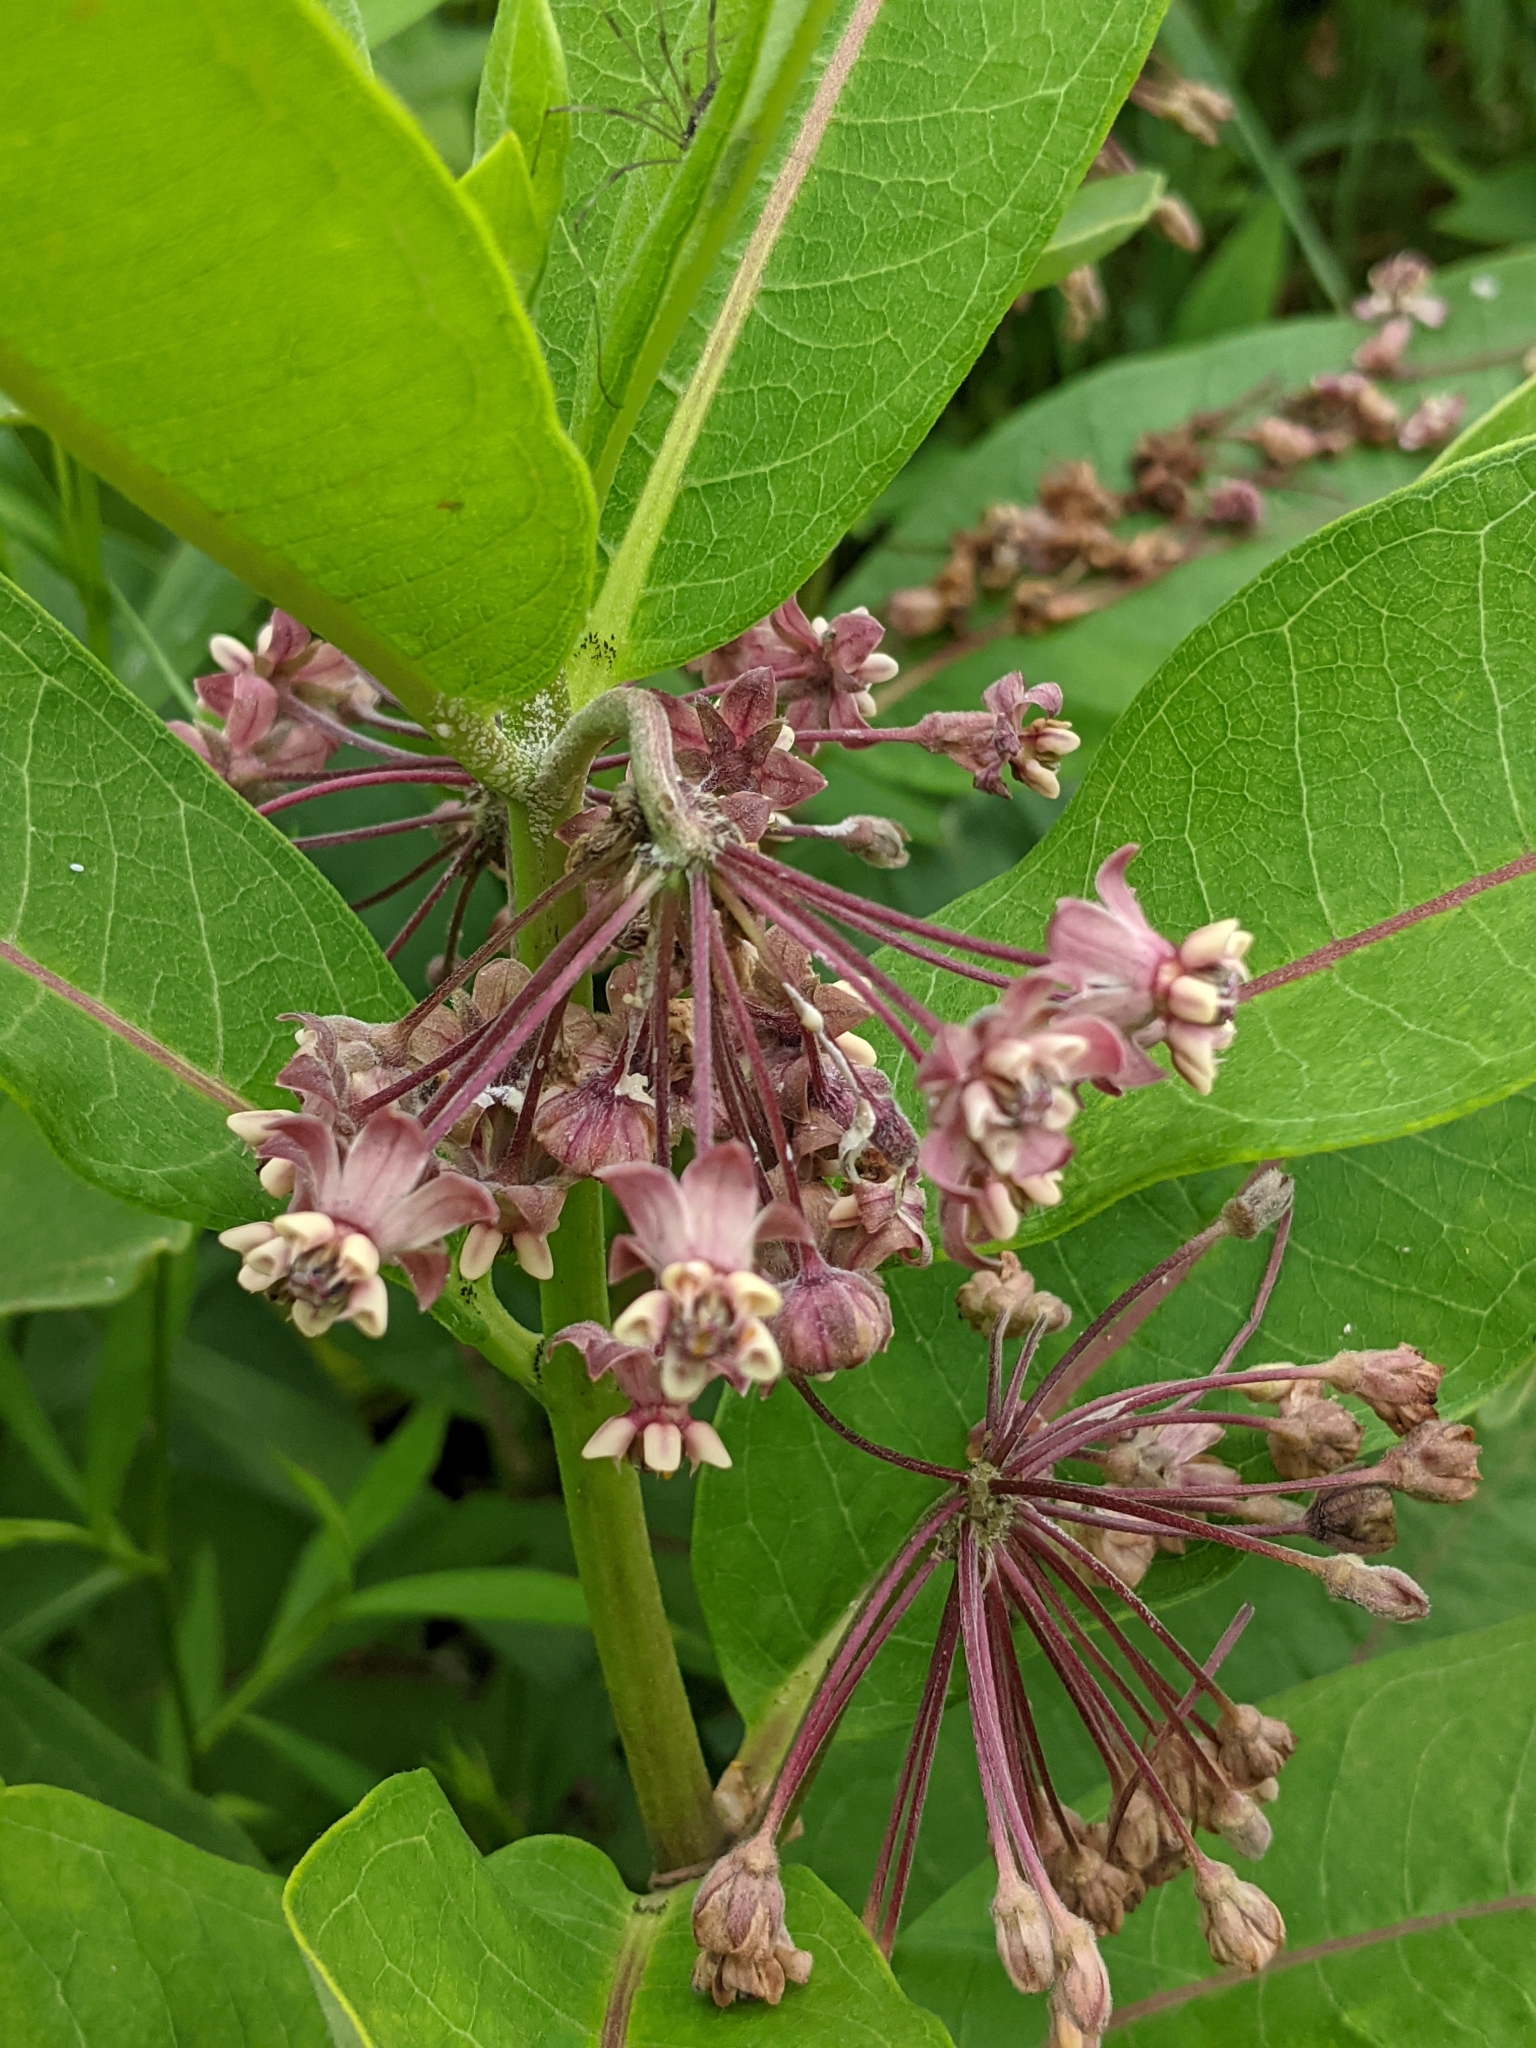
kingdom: Plantae
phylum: Tracheophyta
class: Magnoliopsida
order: Gentianales
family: Apocynaceae
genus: Asclepias
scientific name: Asclepias syriaca
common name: Common milkweed
